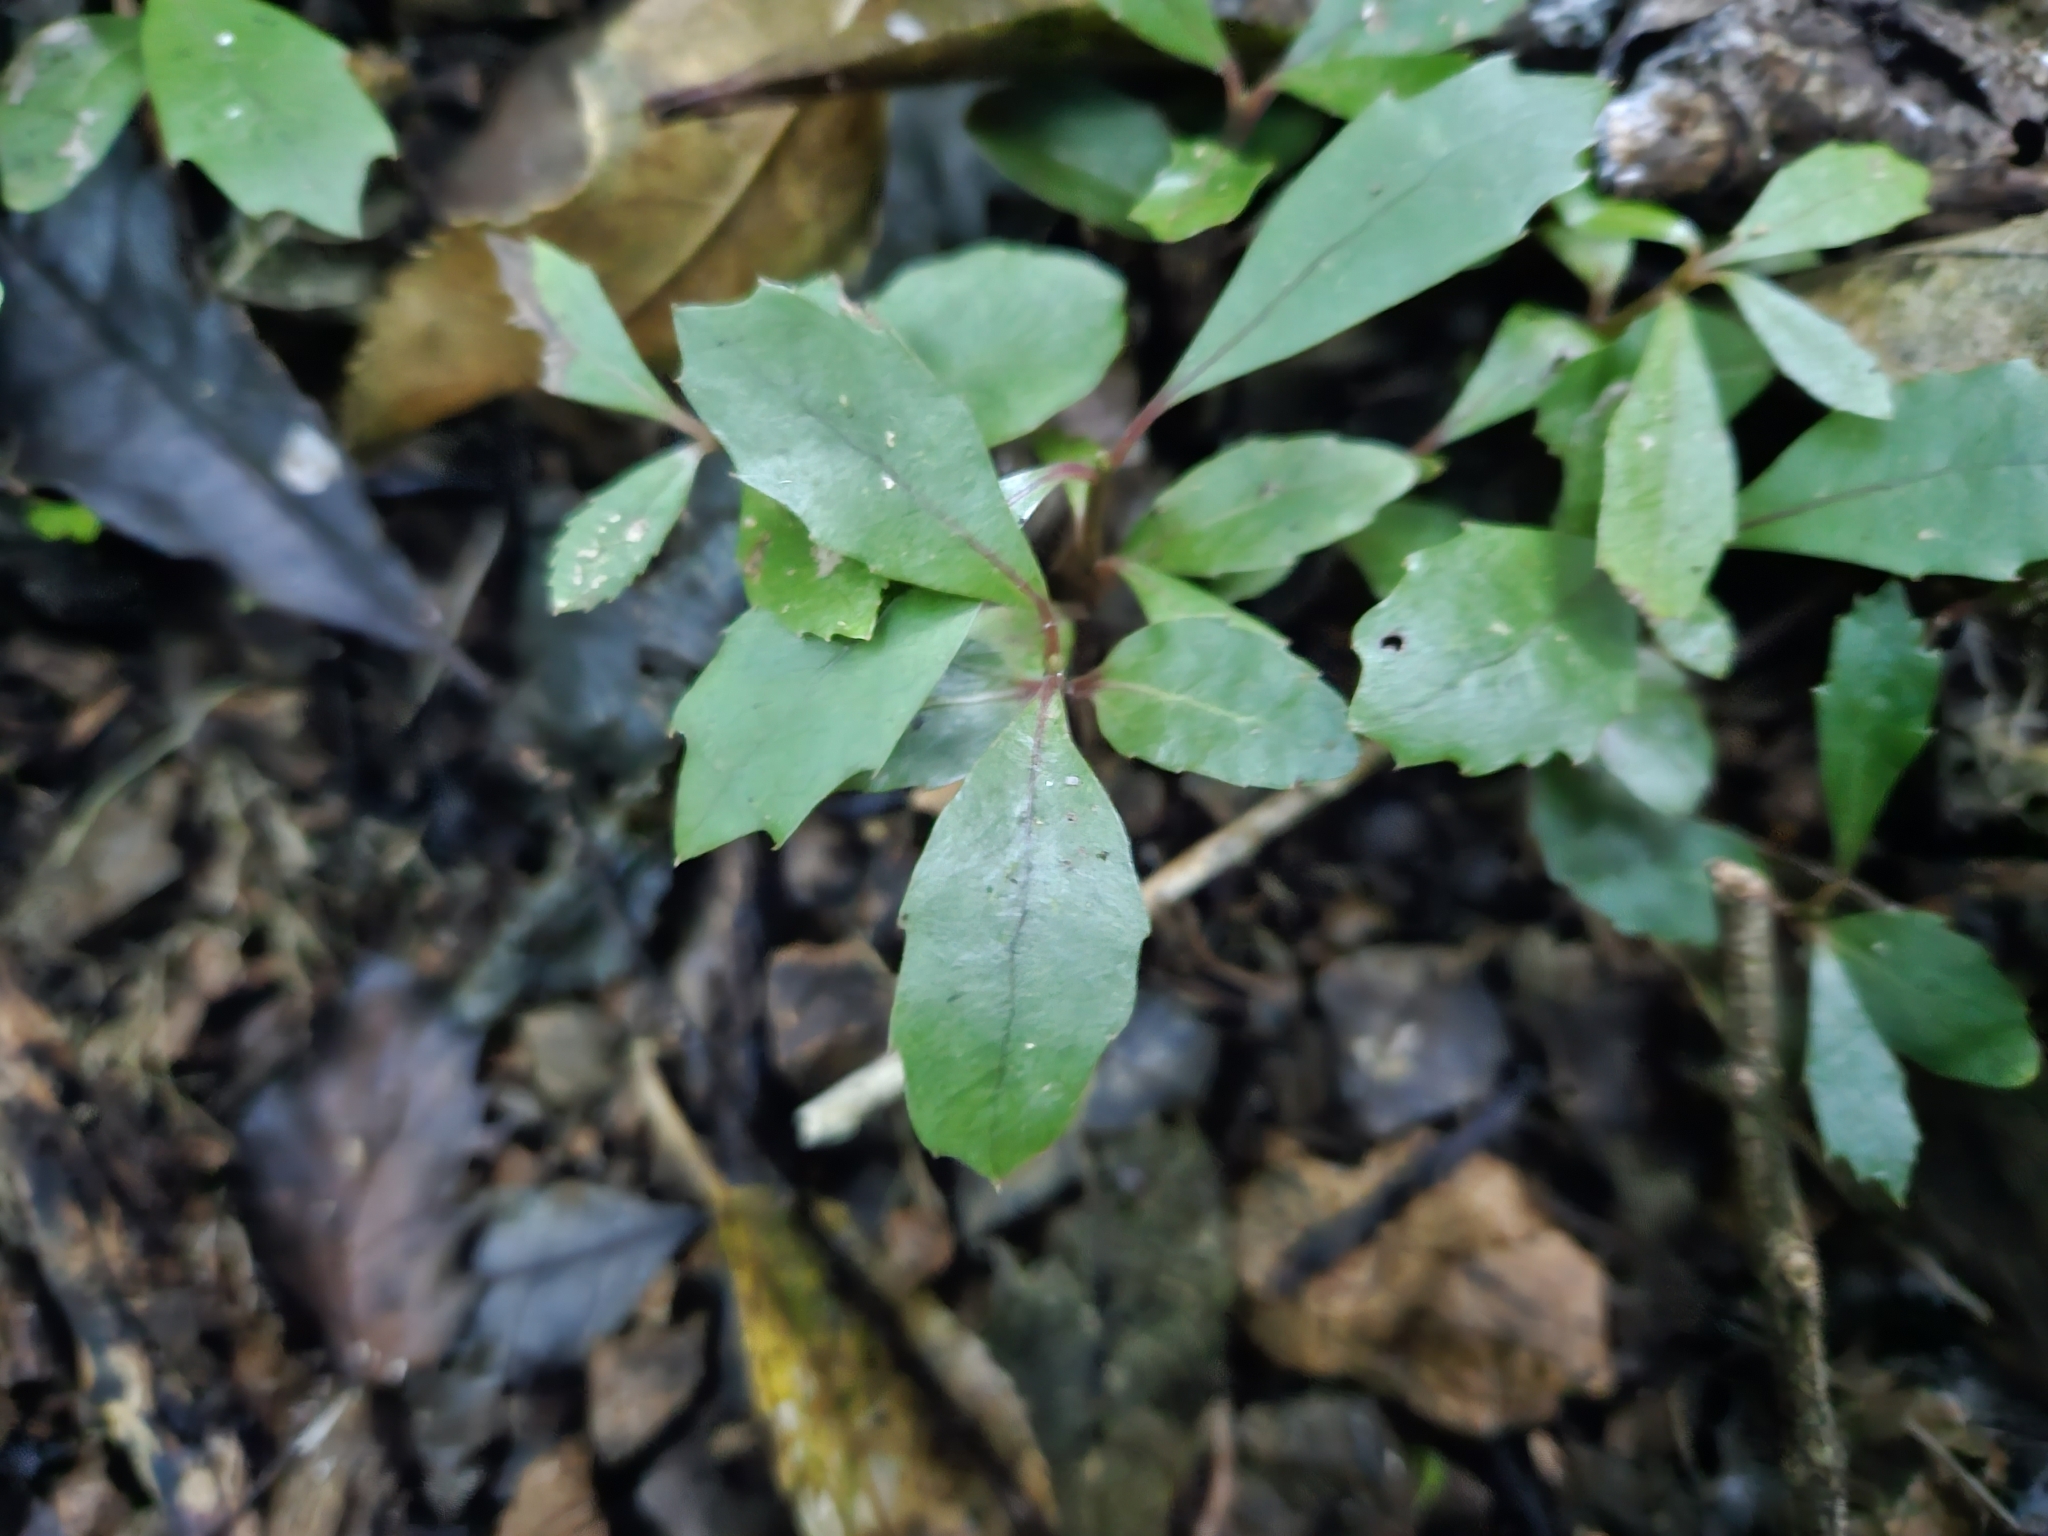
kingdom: Plantae
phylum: Tracheophyta
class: Magnoliopsida
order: Laurales
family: Monimiaceae
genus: Hedycarya
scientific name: Hedycarya arborea
